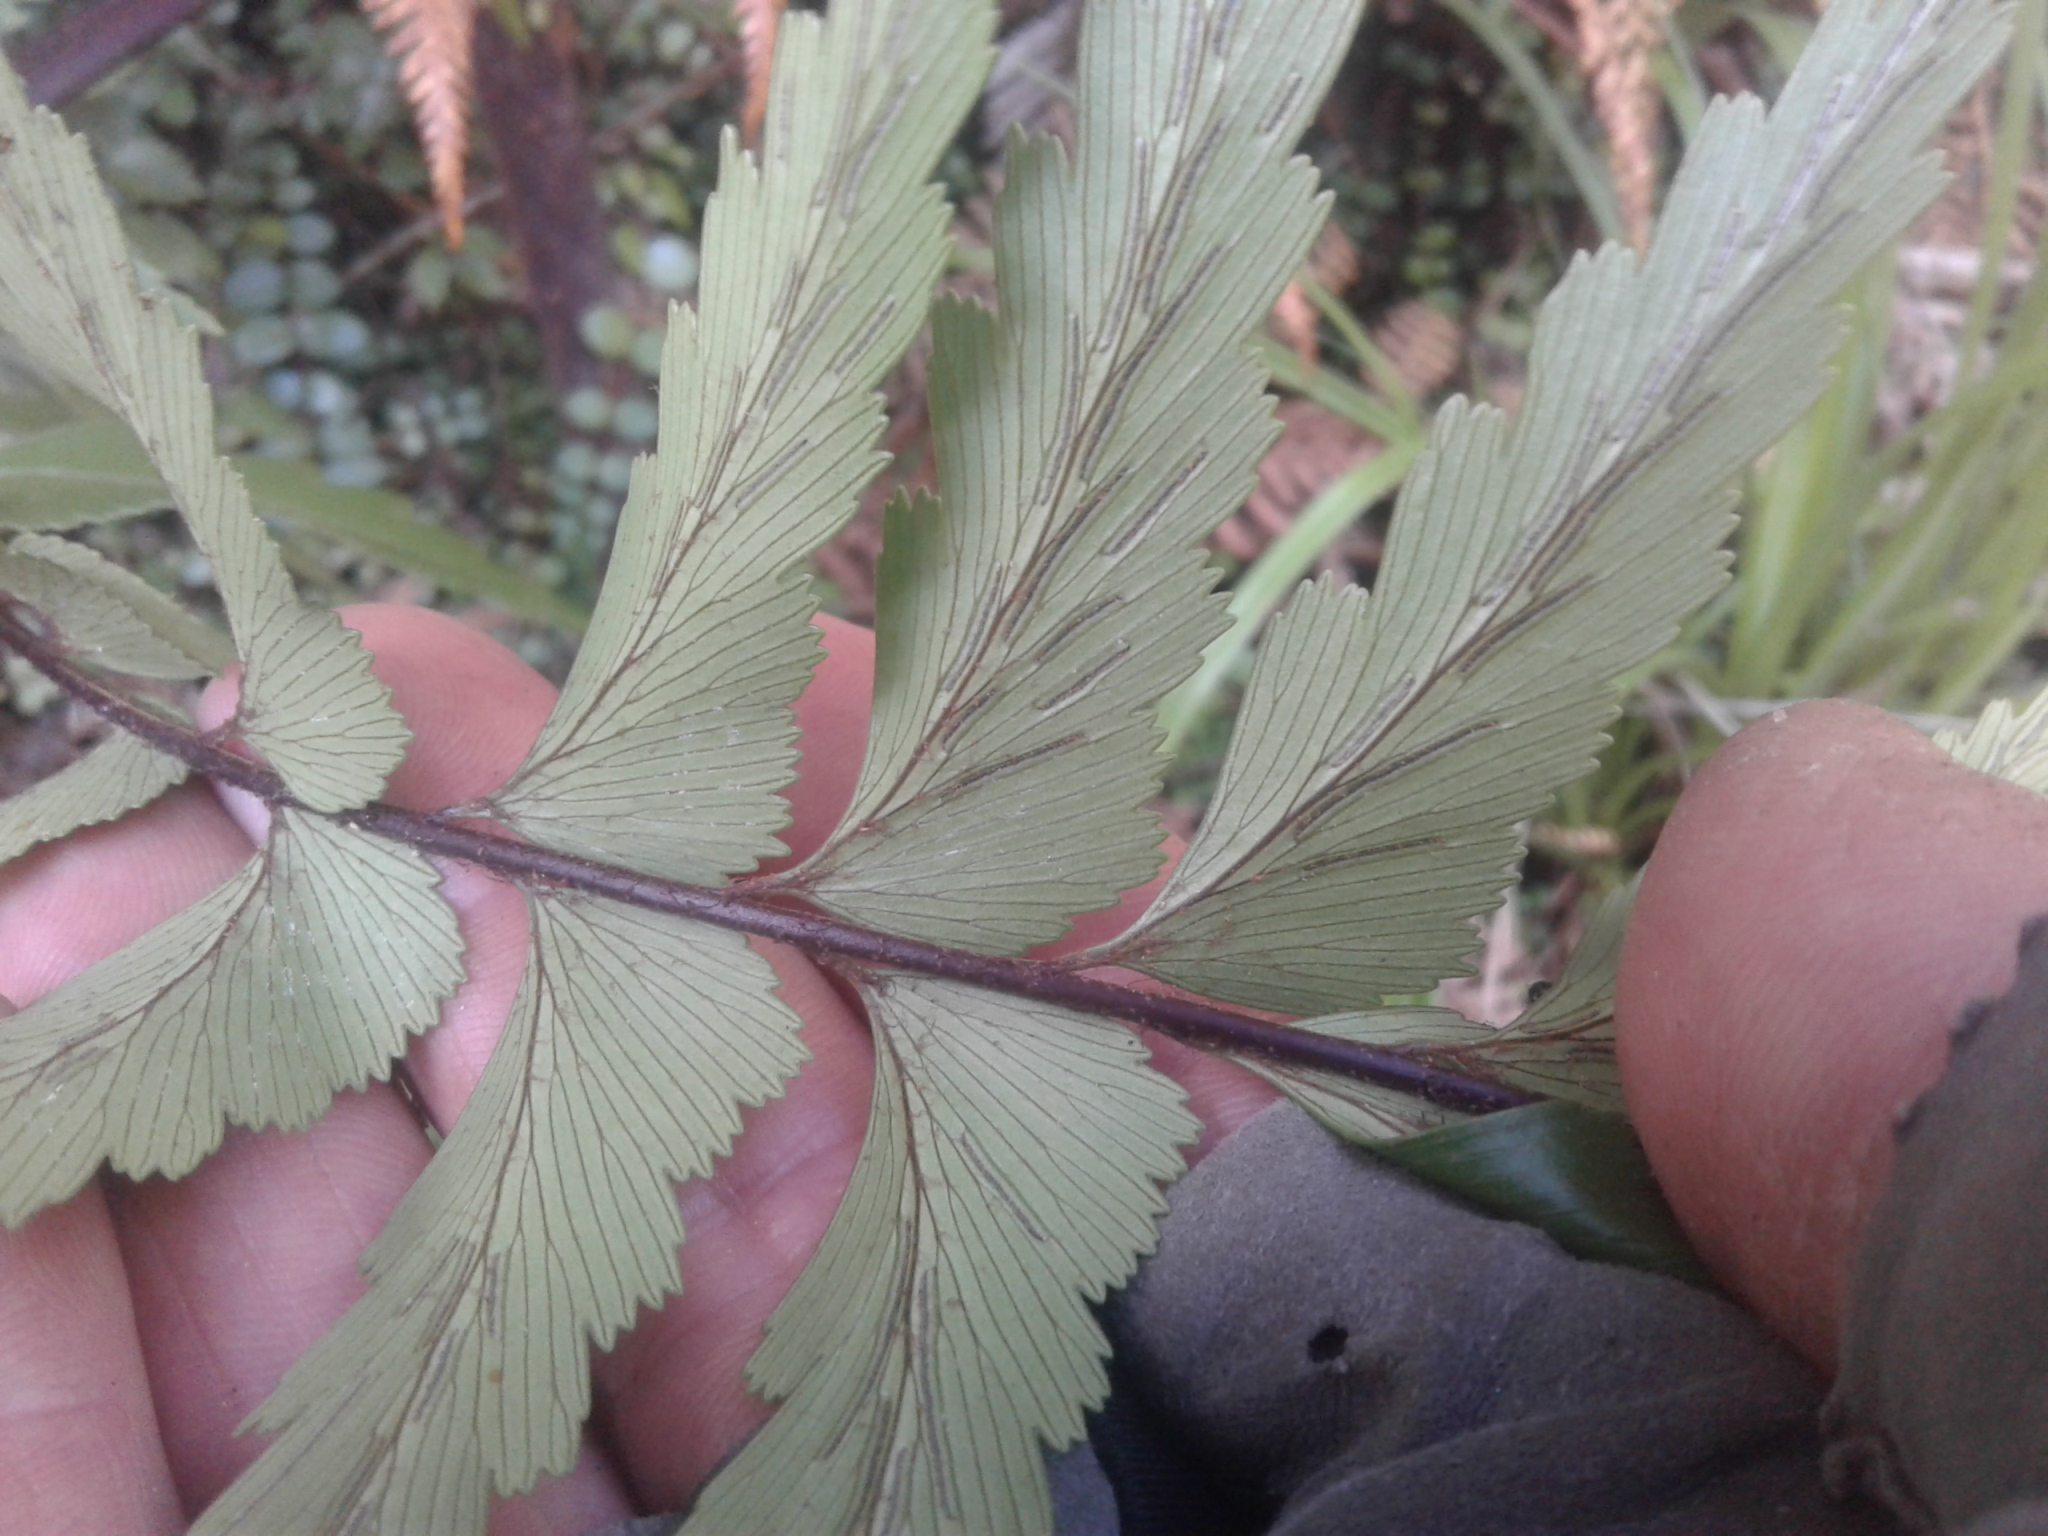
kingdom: Plantae
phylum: Tracheophyta
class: Polypodiopsida
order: Polypodiales
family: Aspleniaceae
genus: Asplenium
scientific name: Asplenium polyodon
